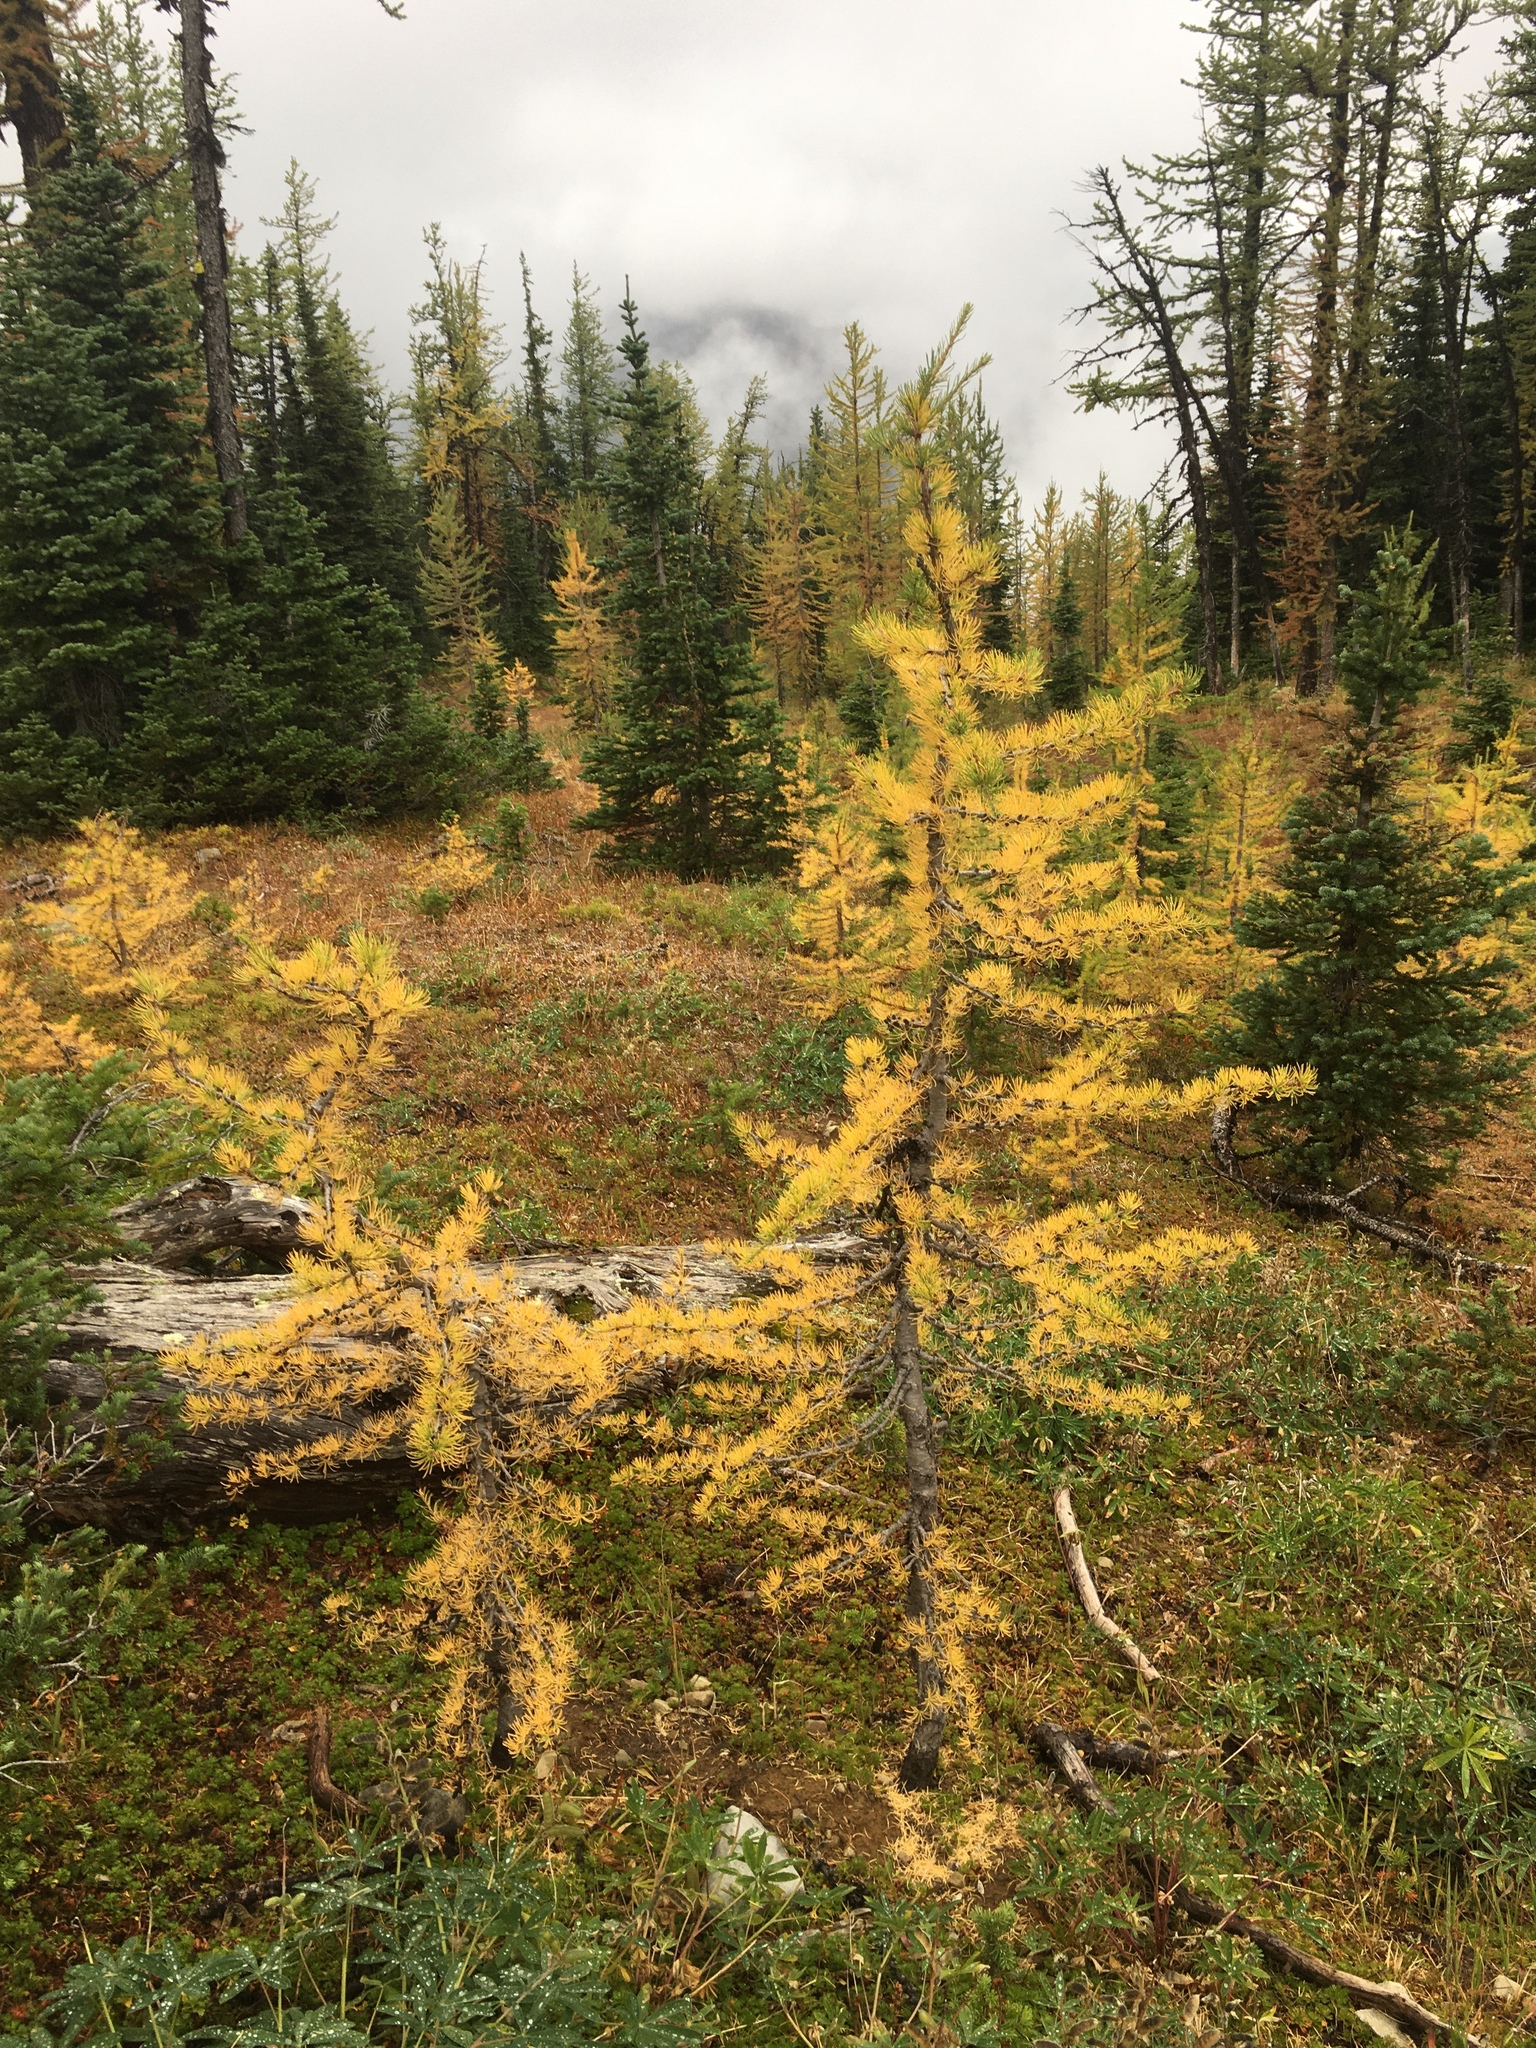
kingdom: Plantae
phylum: Tracheophyta
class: Pinopsida
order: Pinales
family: Pinaceae
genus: Larix
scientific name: Larix lyallii
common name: Alpine larch
